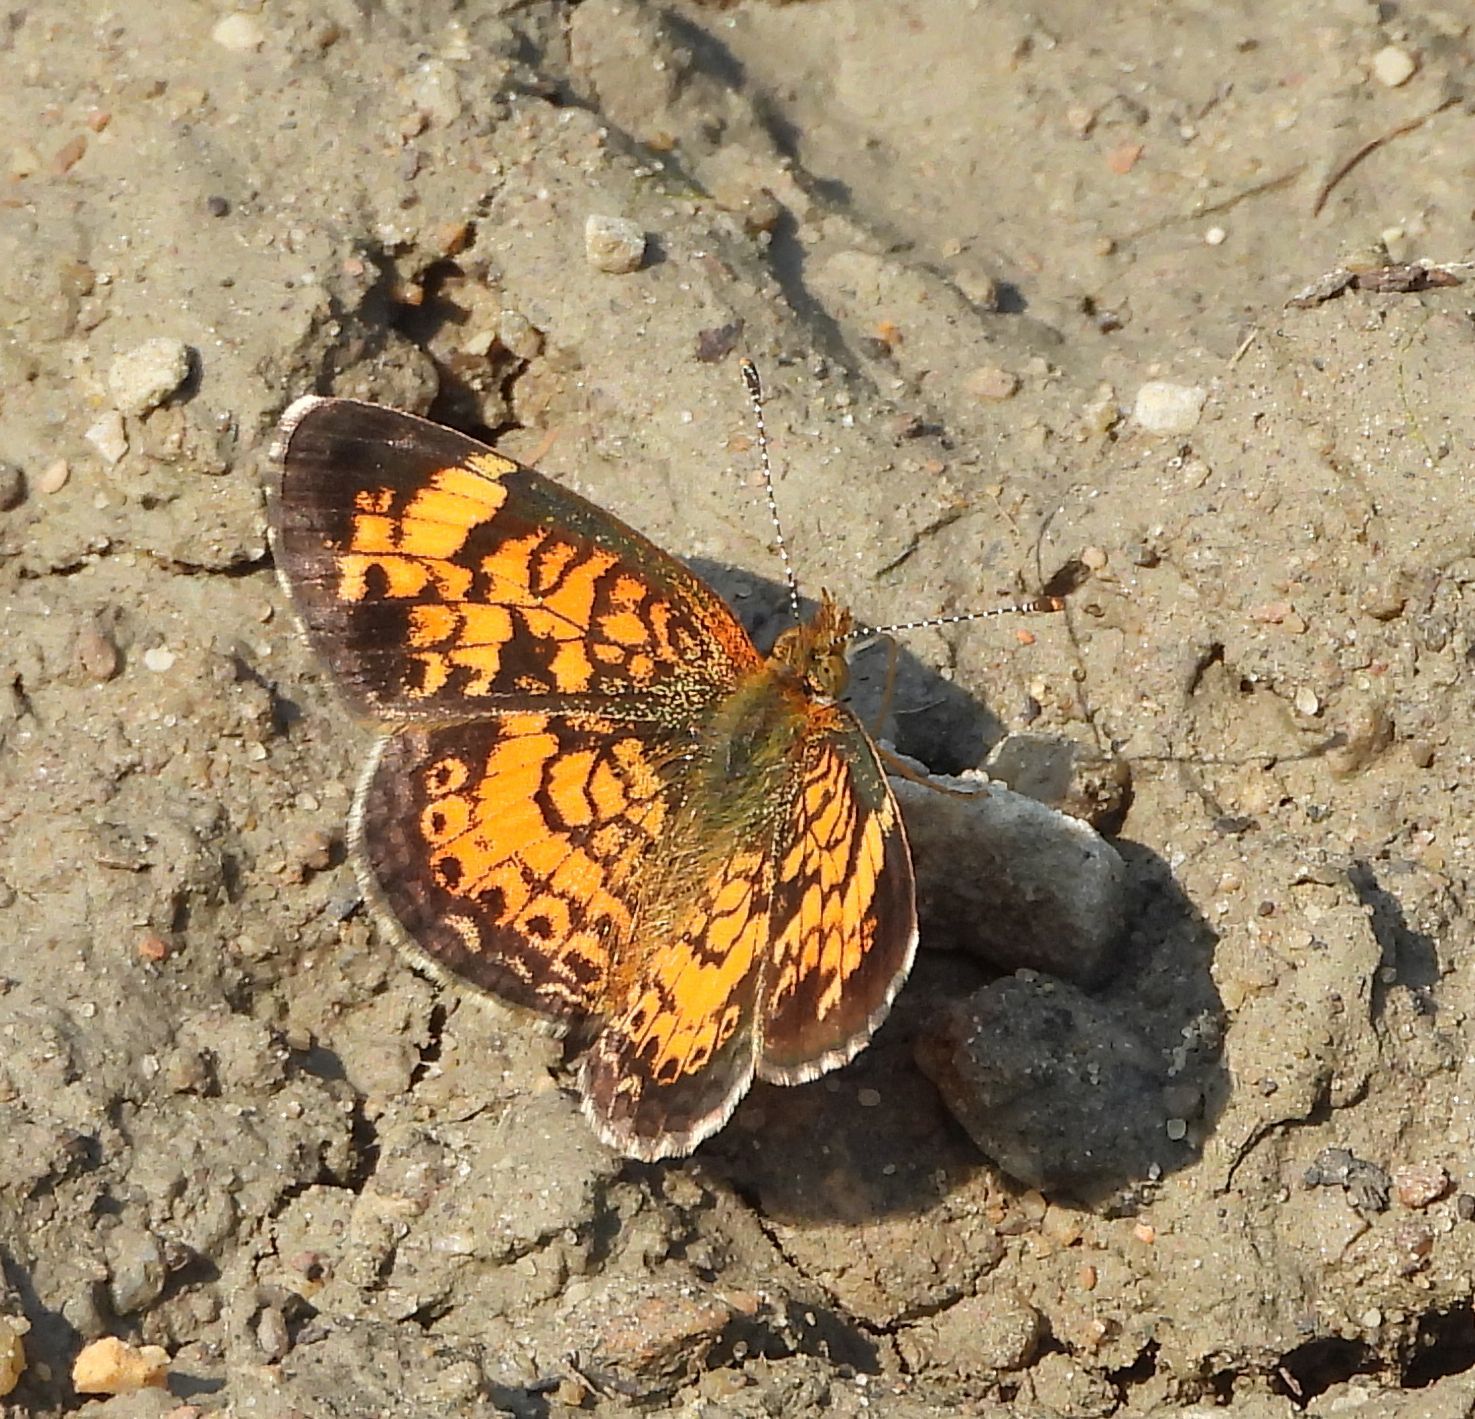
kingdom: Animalia
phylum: Arthropoda
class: Insecta
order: Lepidoptera
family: Nymphalidae
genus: Phyciodes
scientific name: Phyciodes tharos
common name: Pearl crescent
